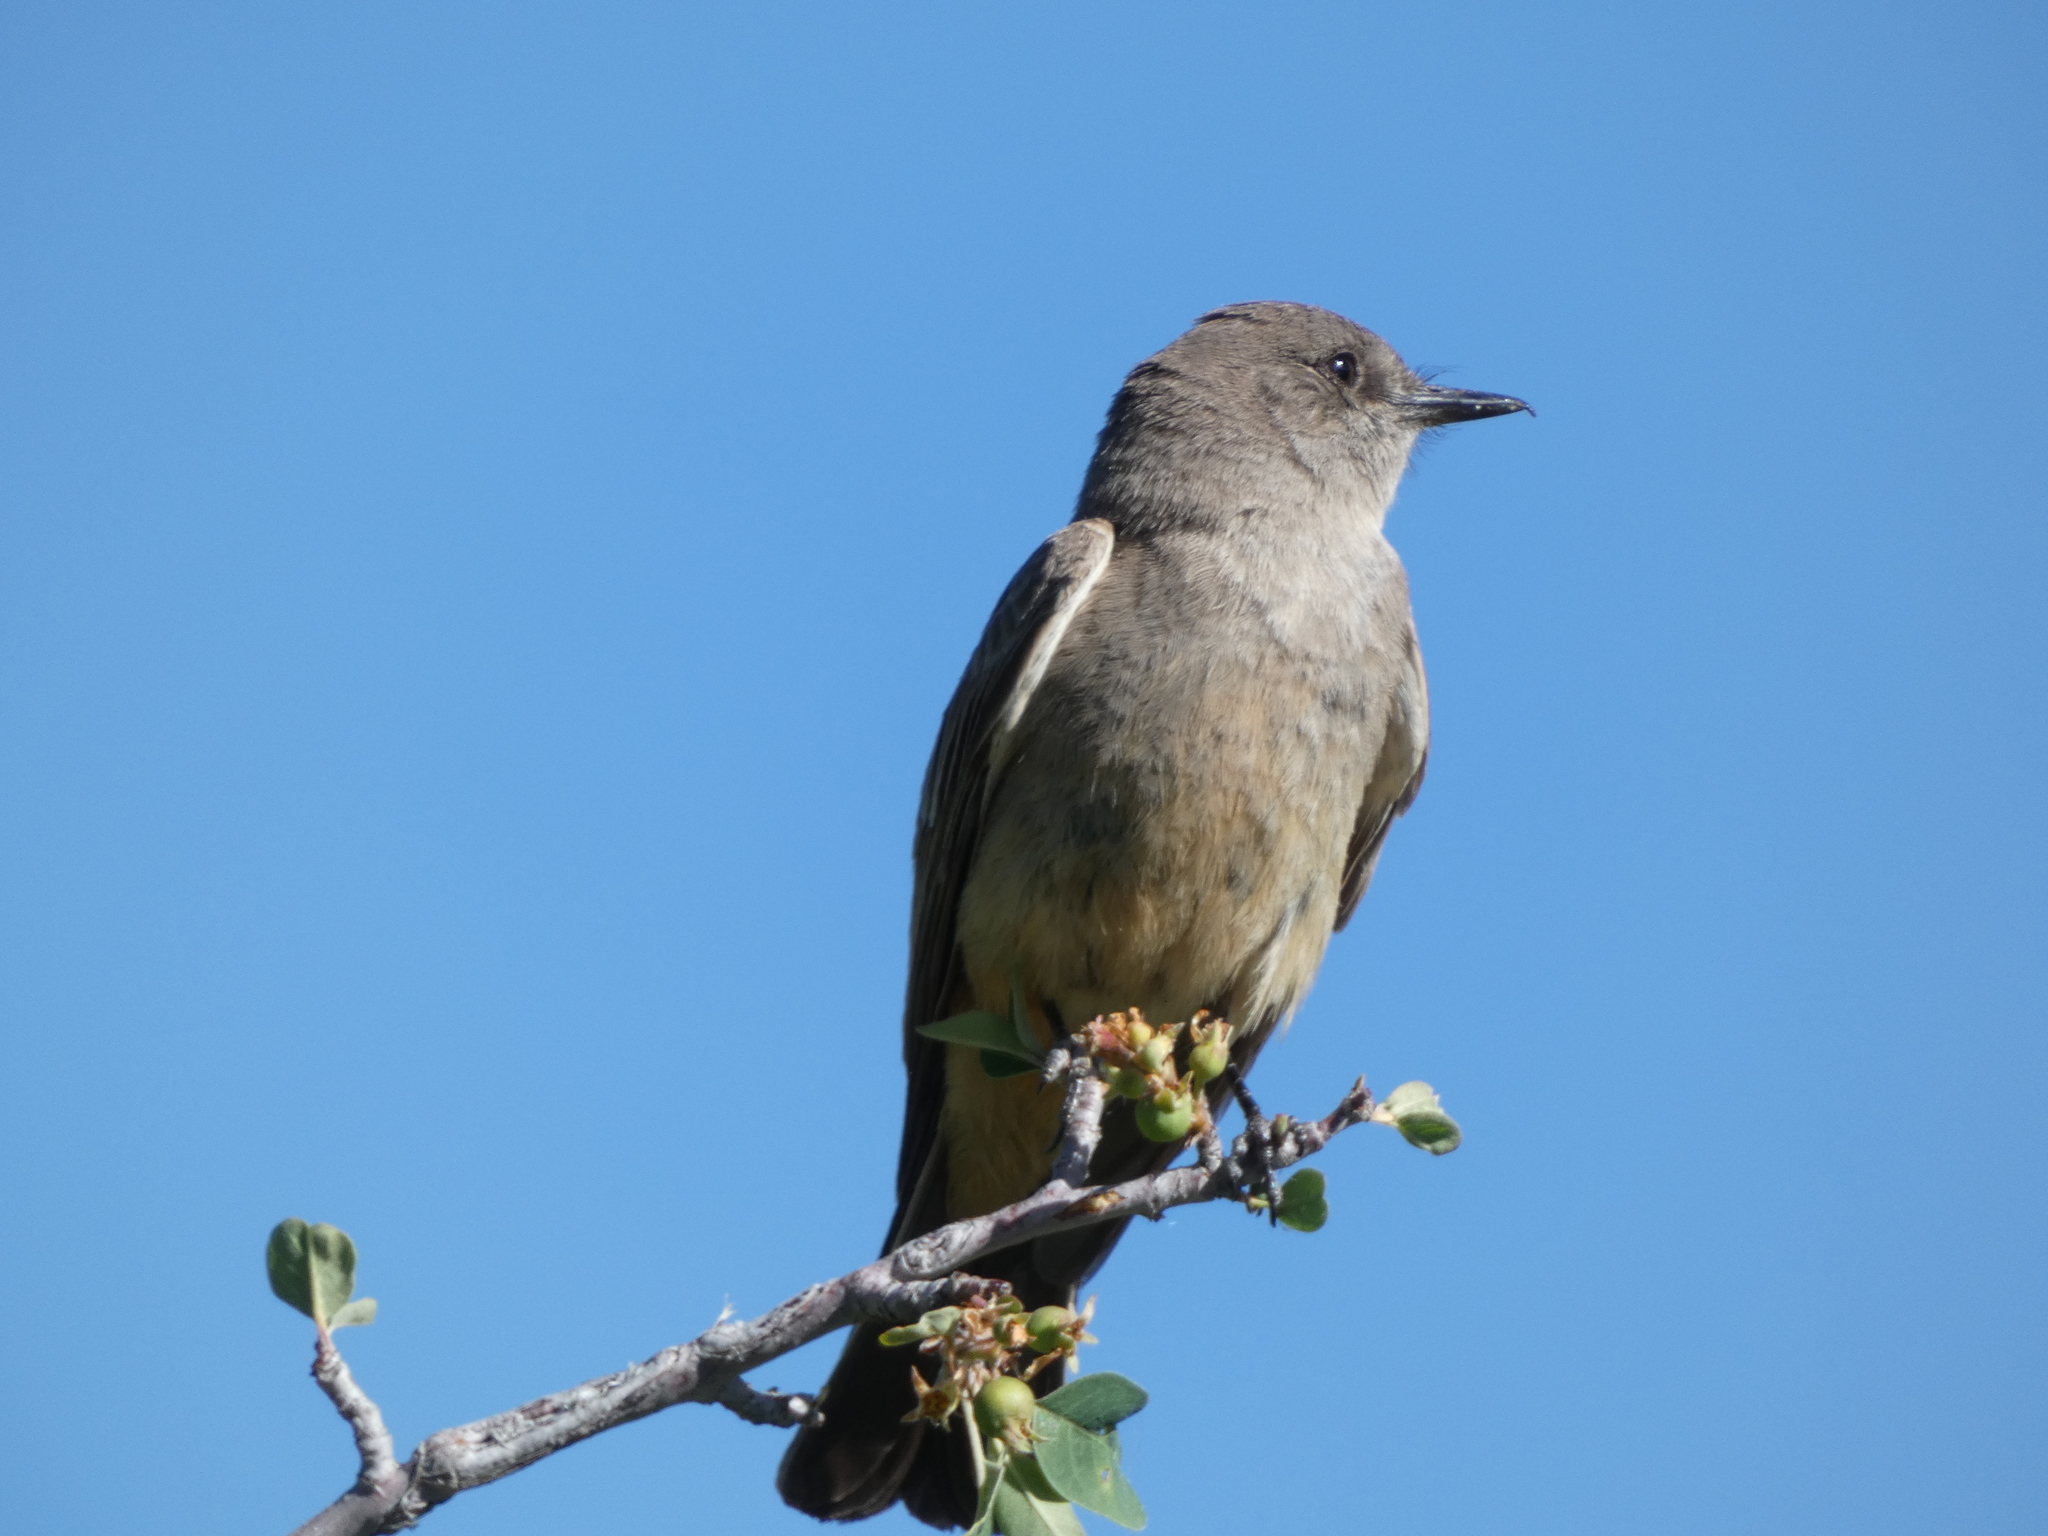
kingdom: Animalia
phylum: Chordata
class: Aves
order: Passeriformes
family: Tyrannidae
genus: Sayornis
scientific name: Sayornis saya
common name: Say's phoebe
